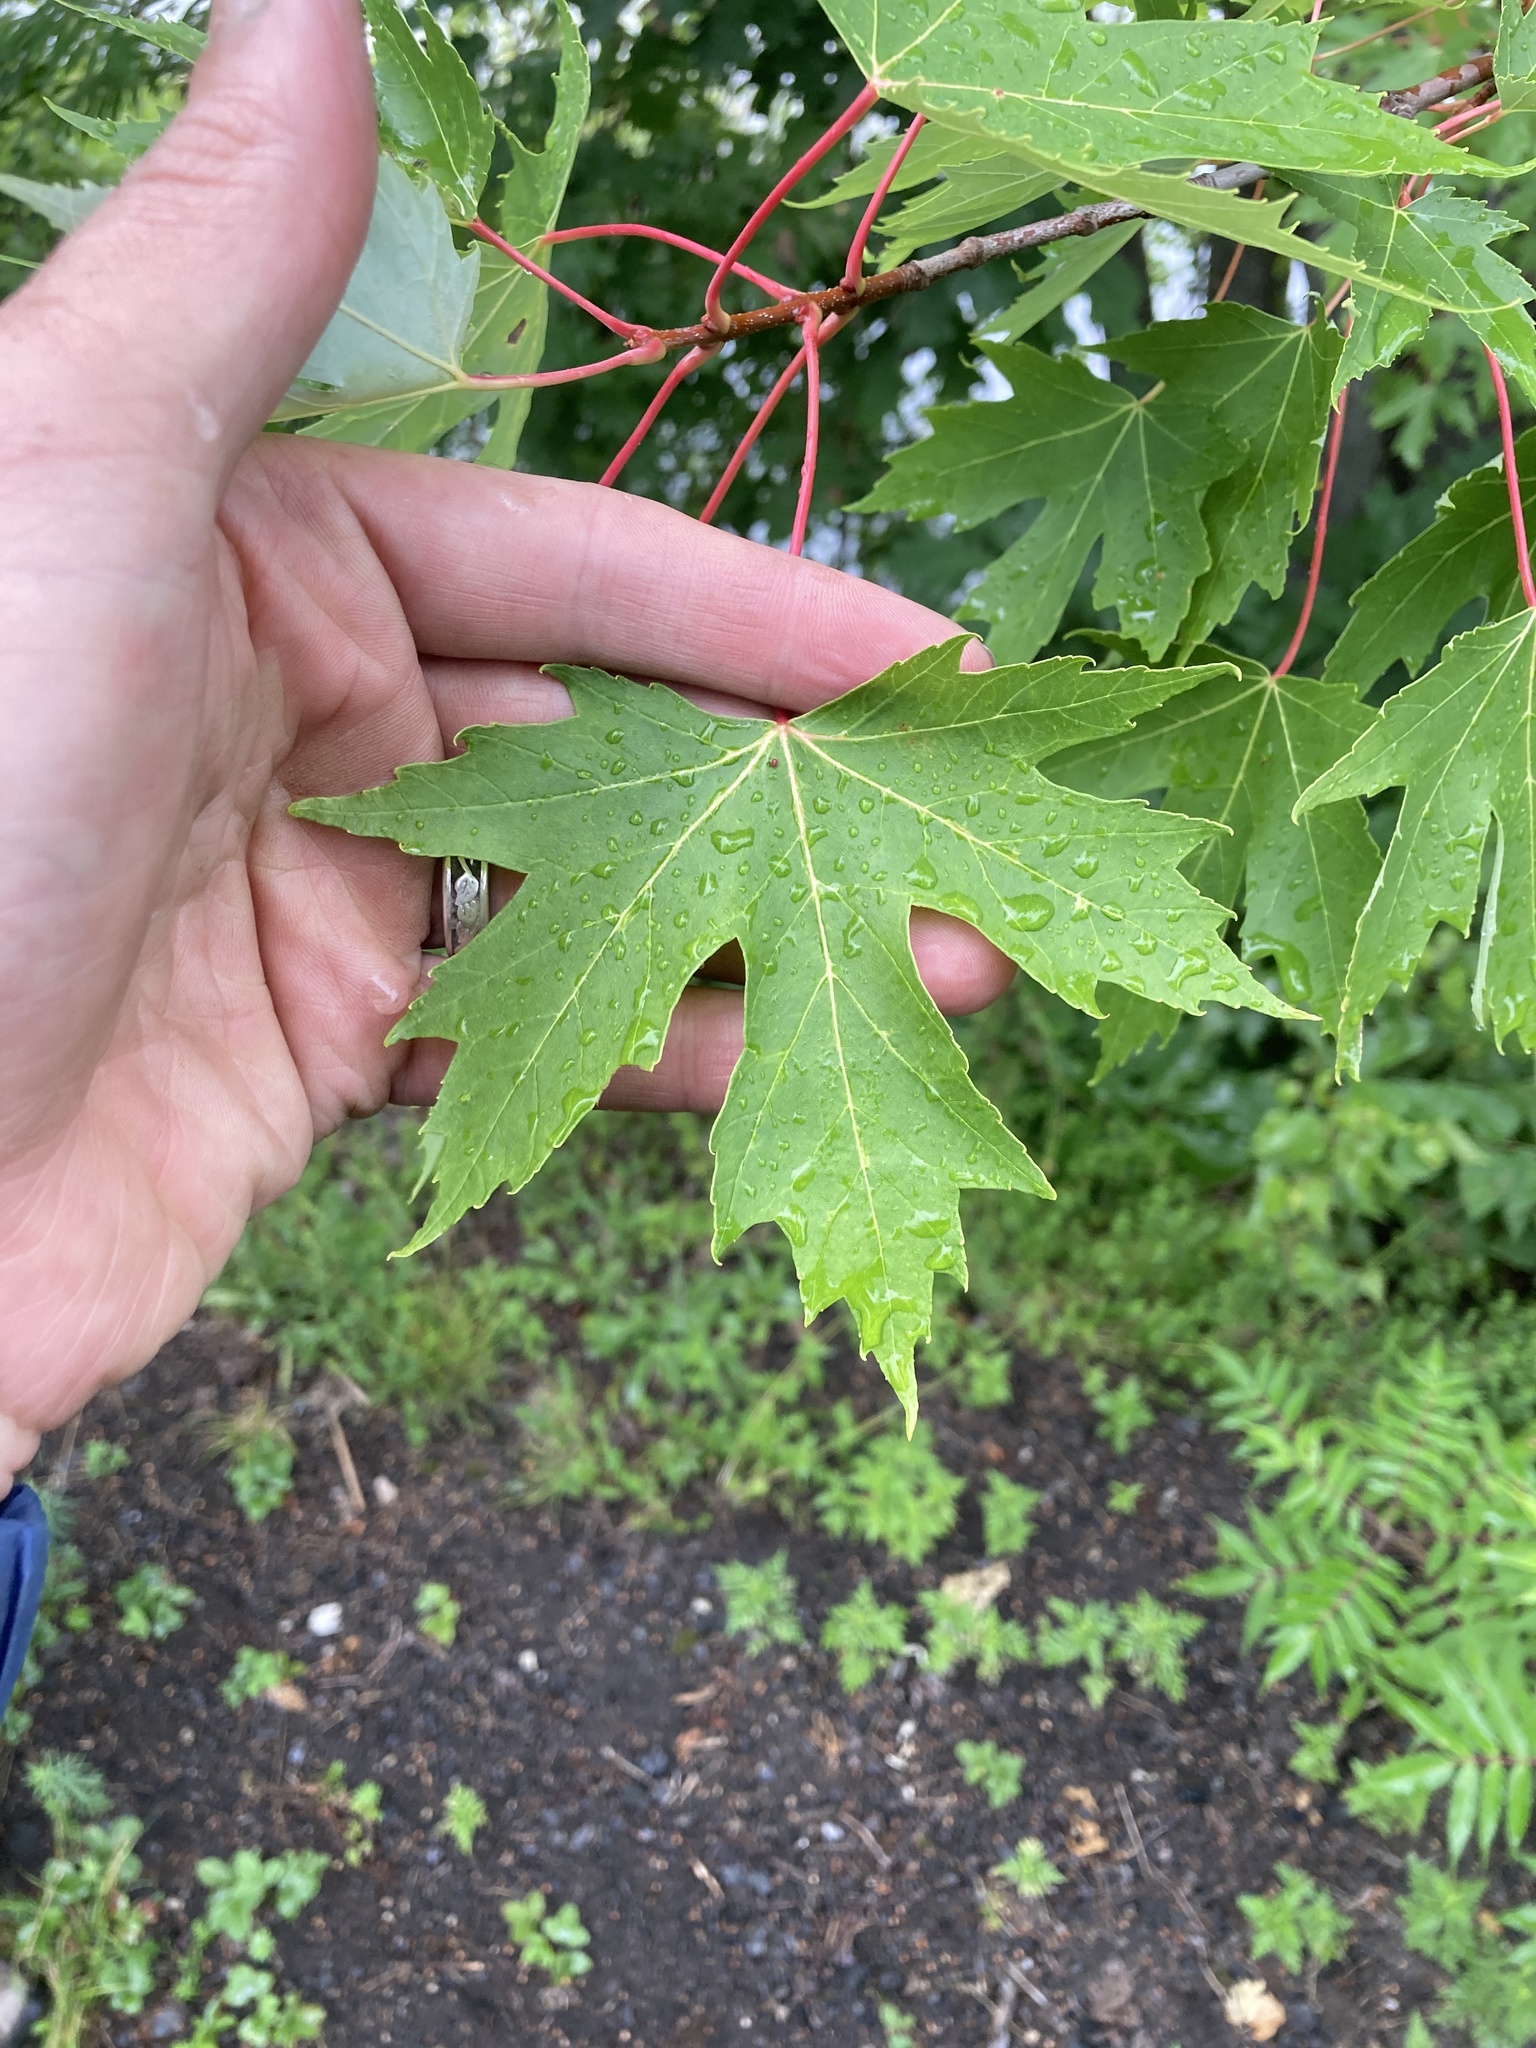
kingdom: Plantae
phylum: Tracheophyta
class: Magnoliopsida
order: Sapindales
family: Sapindaceae
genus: Acer
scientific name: Acer saccharinum
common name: Silver maple
